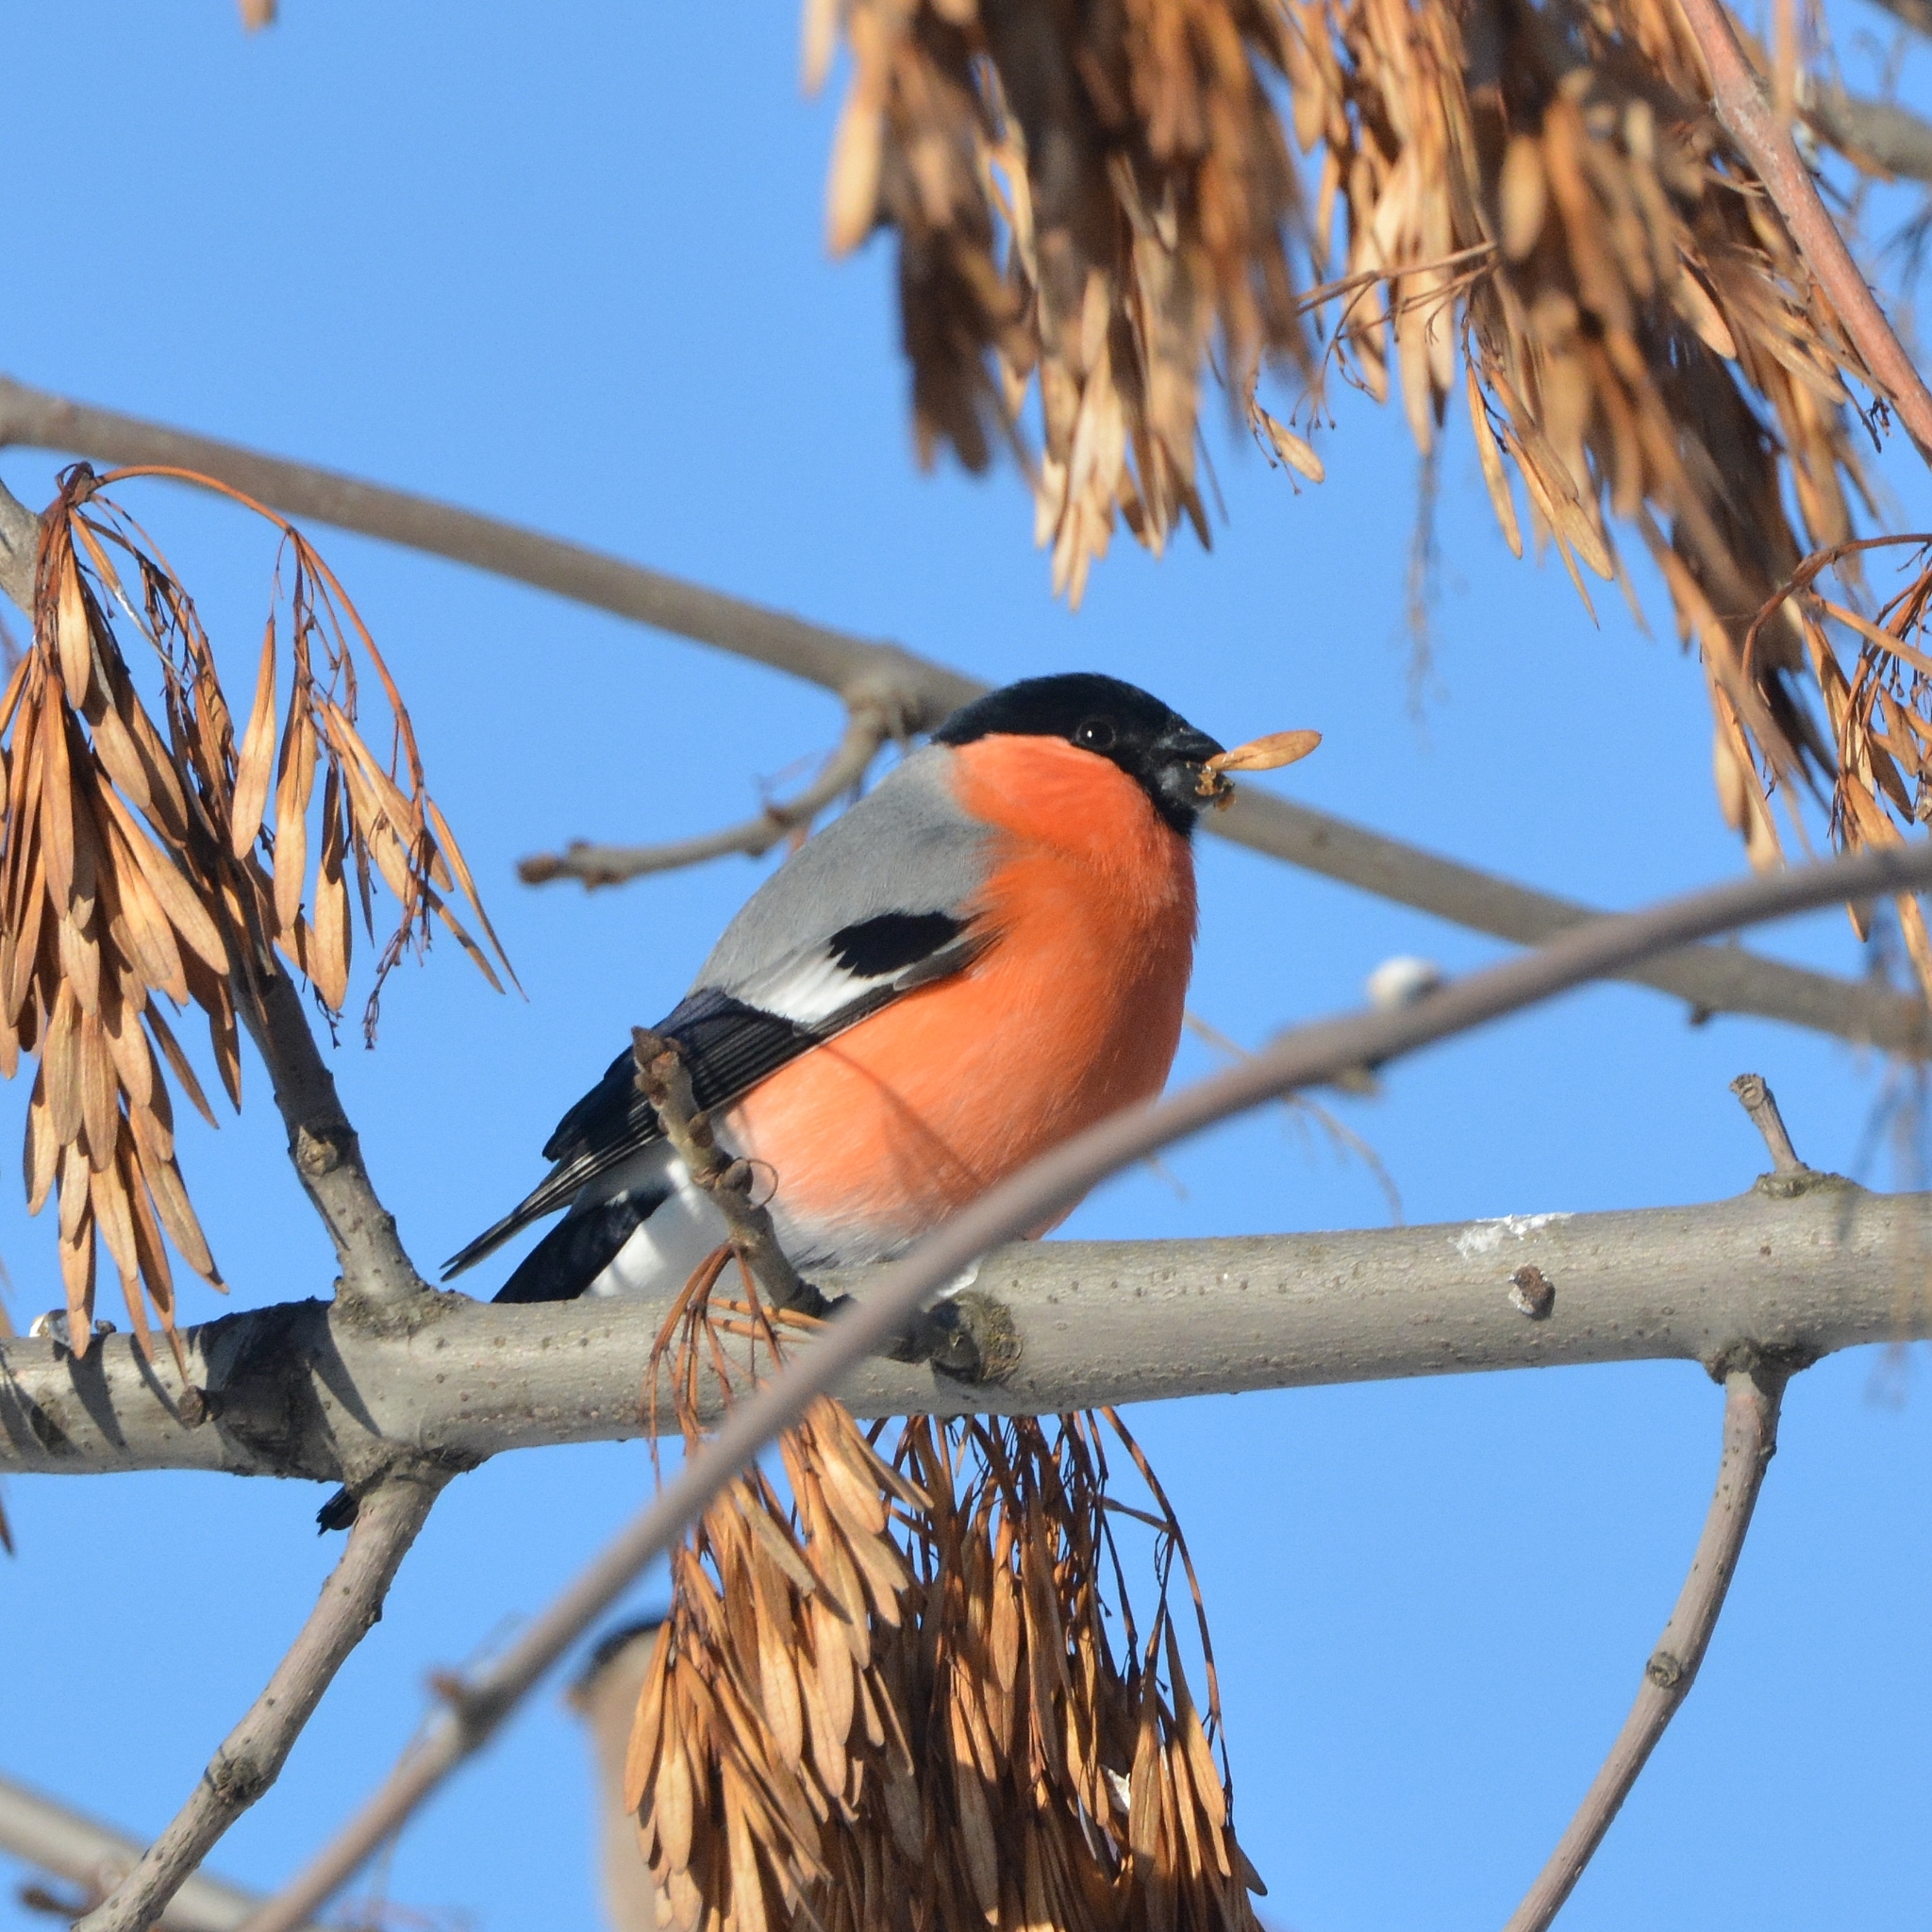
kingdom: Animalia
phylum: Chordata
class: Aves
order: Passeriformes
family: Fringillidae
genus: Pyrrhula
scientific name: Pyrrhula pyrrhula
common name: Eurasian bullfinch
